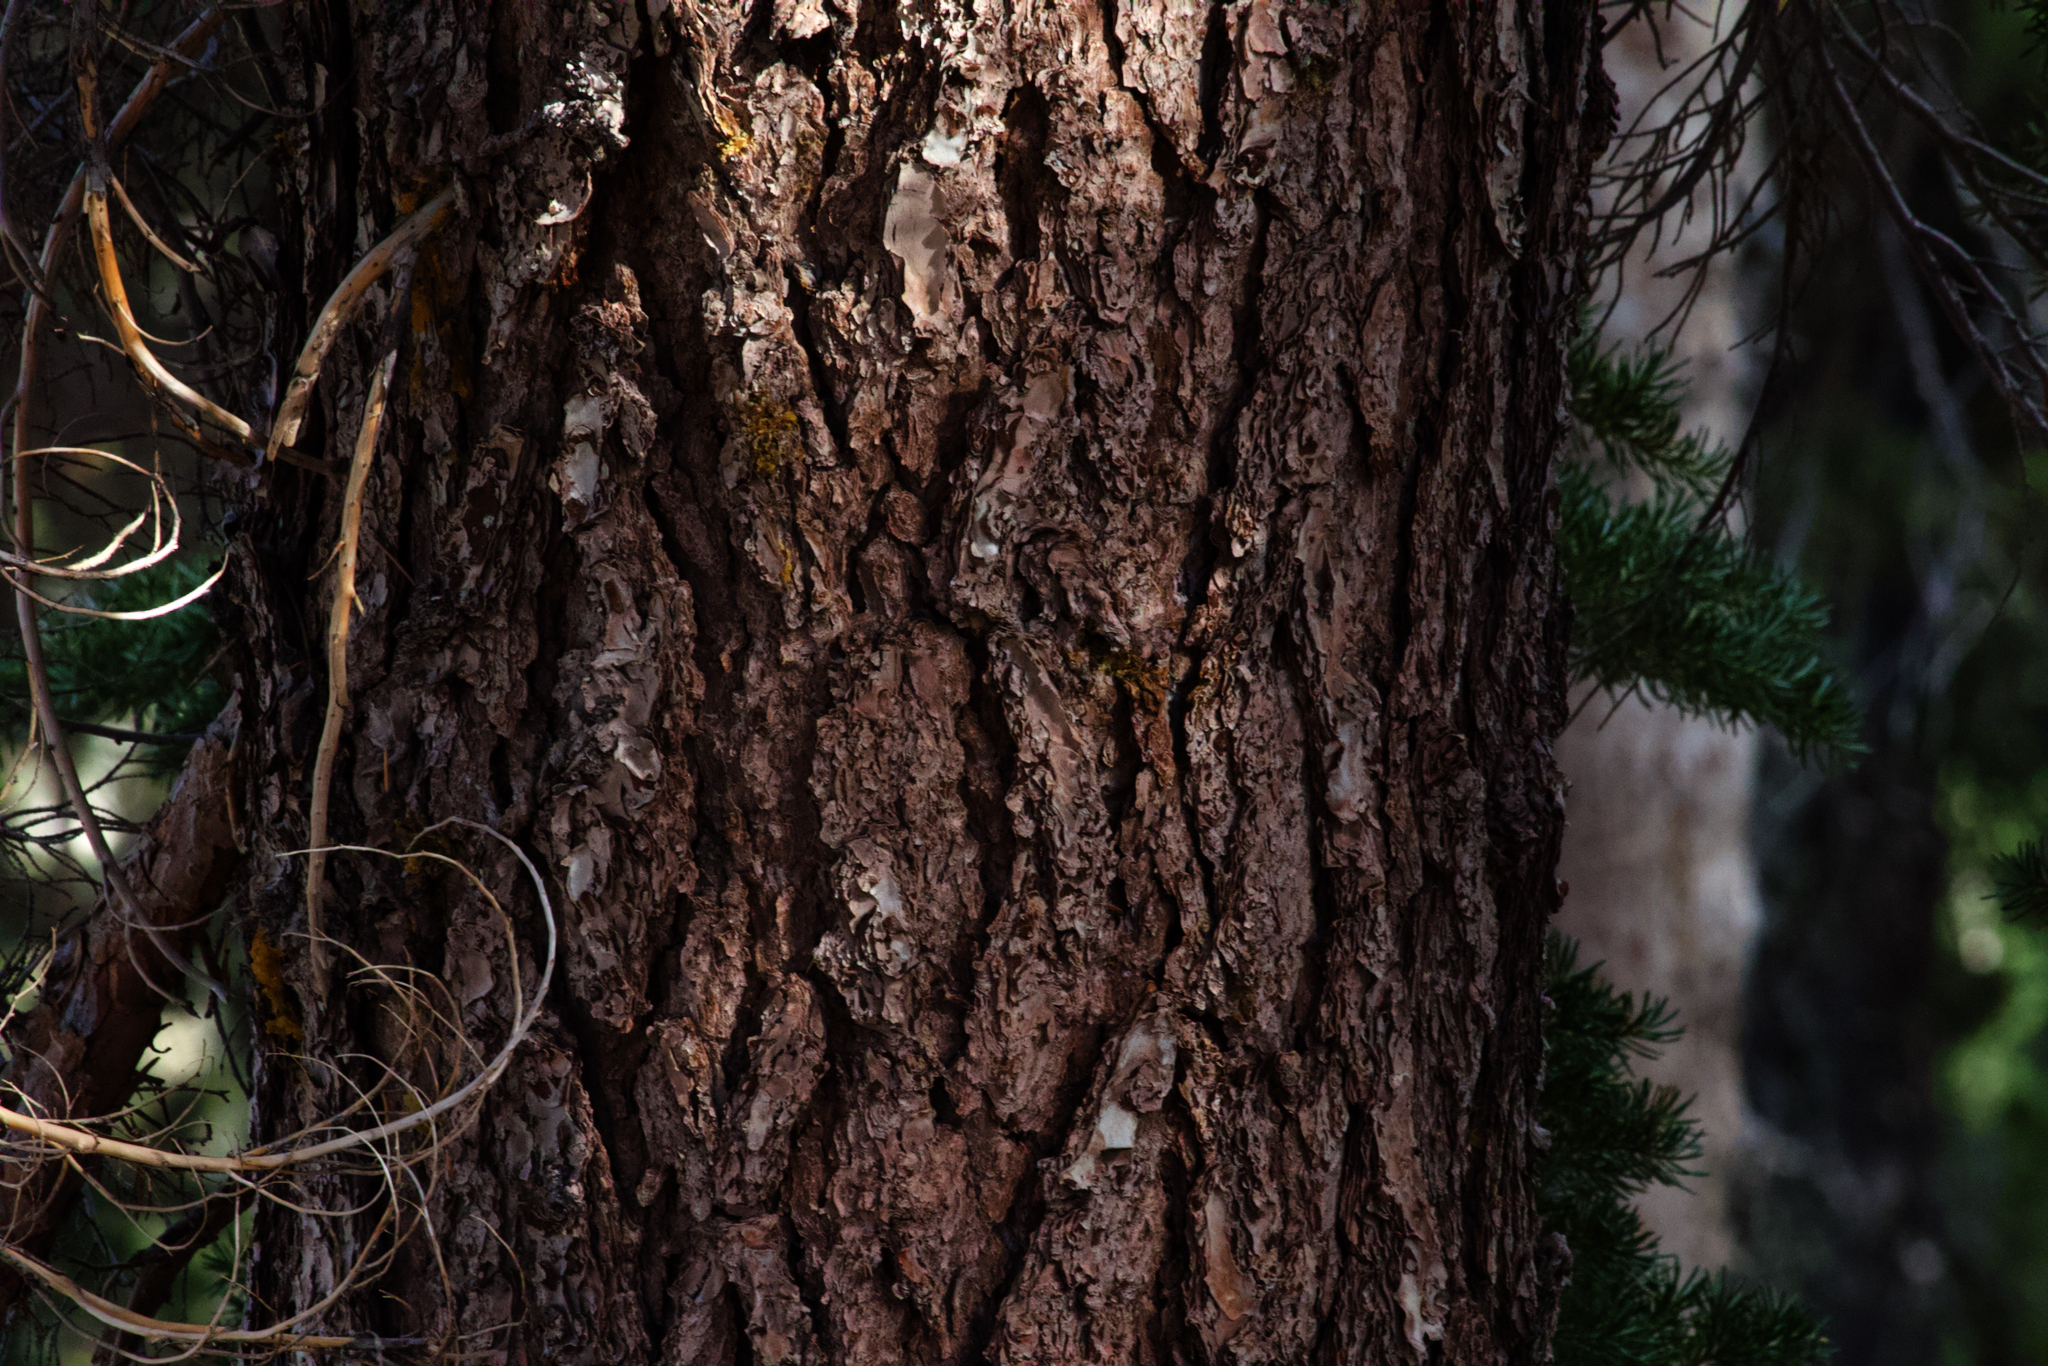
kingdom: Plantae
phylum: Tracheophyta
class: Pinopsida
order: Pinales
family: Pinaceae
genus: Tsuga
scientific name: Tsuga mertensiana
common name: Mountain hemlock
